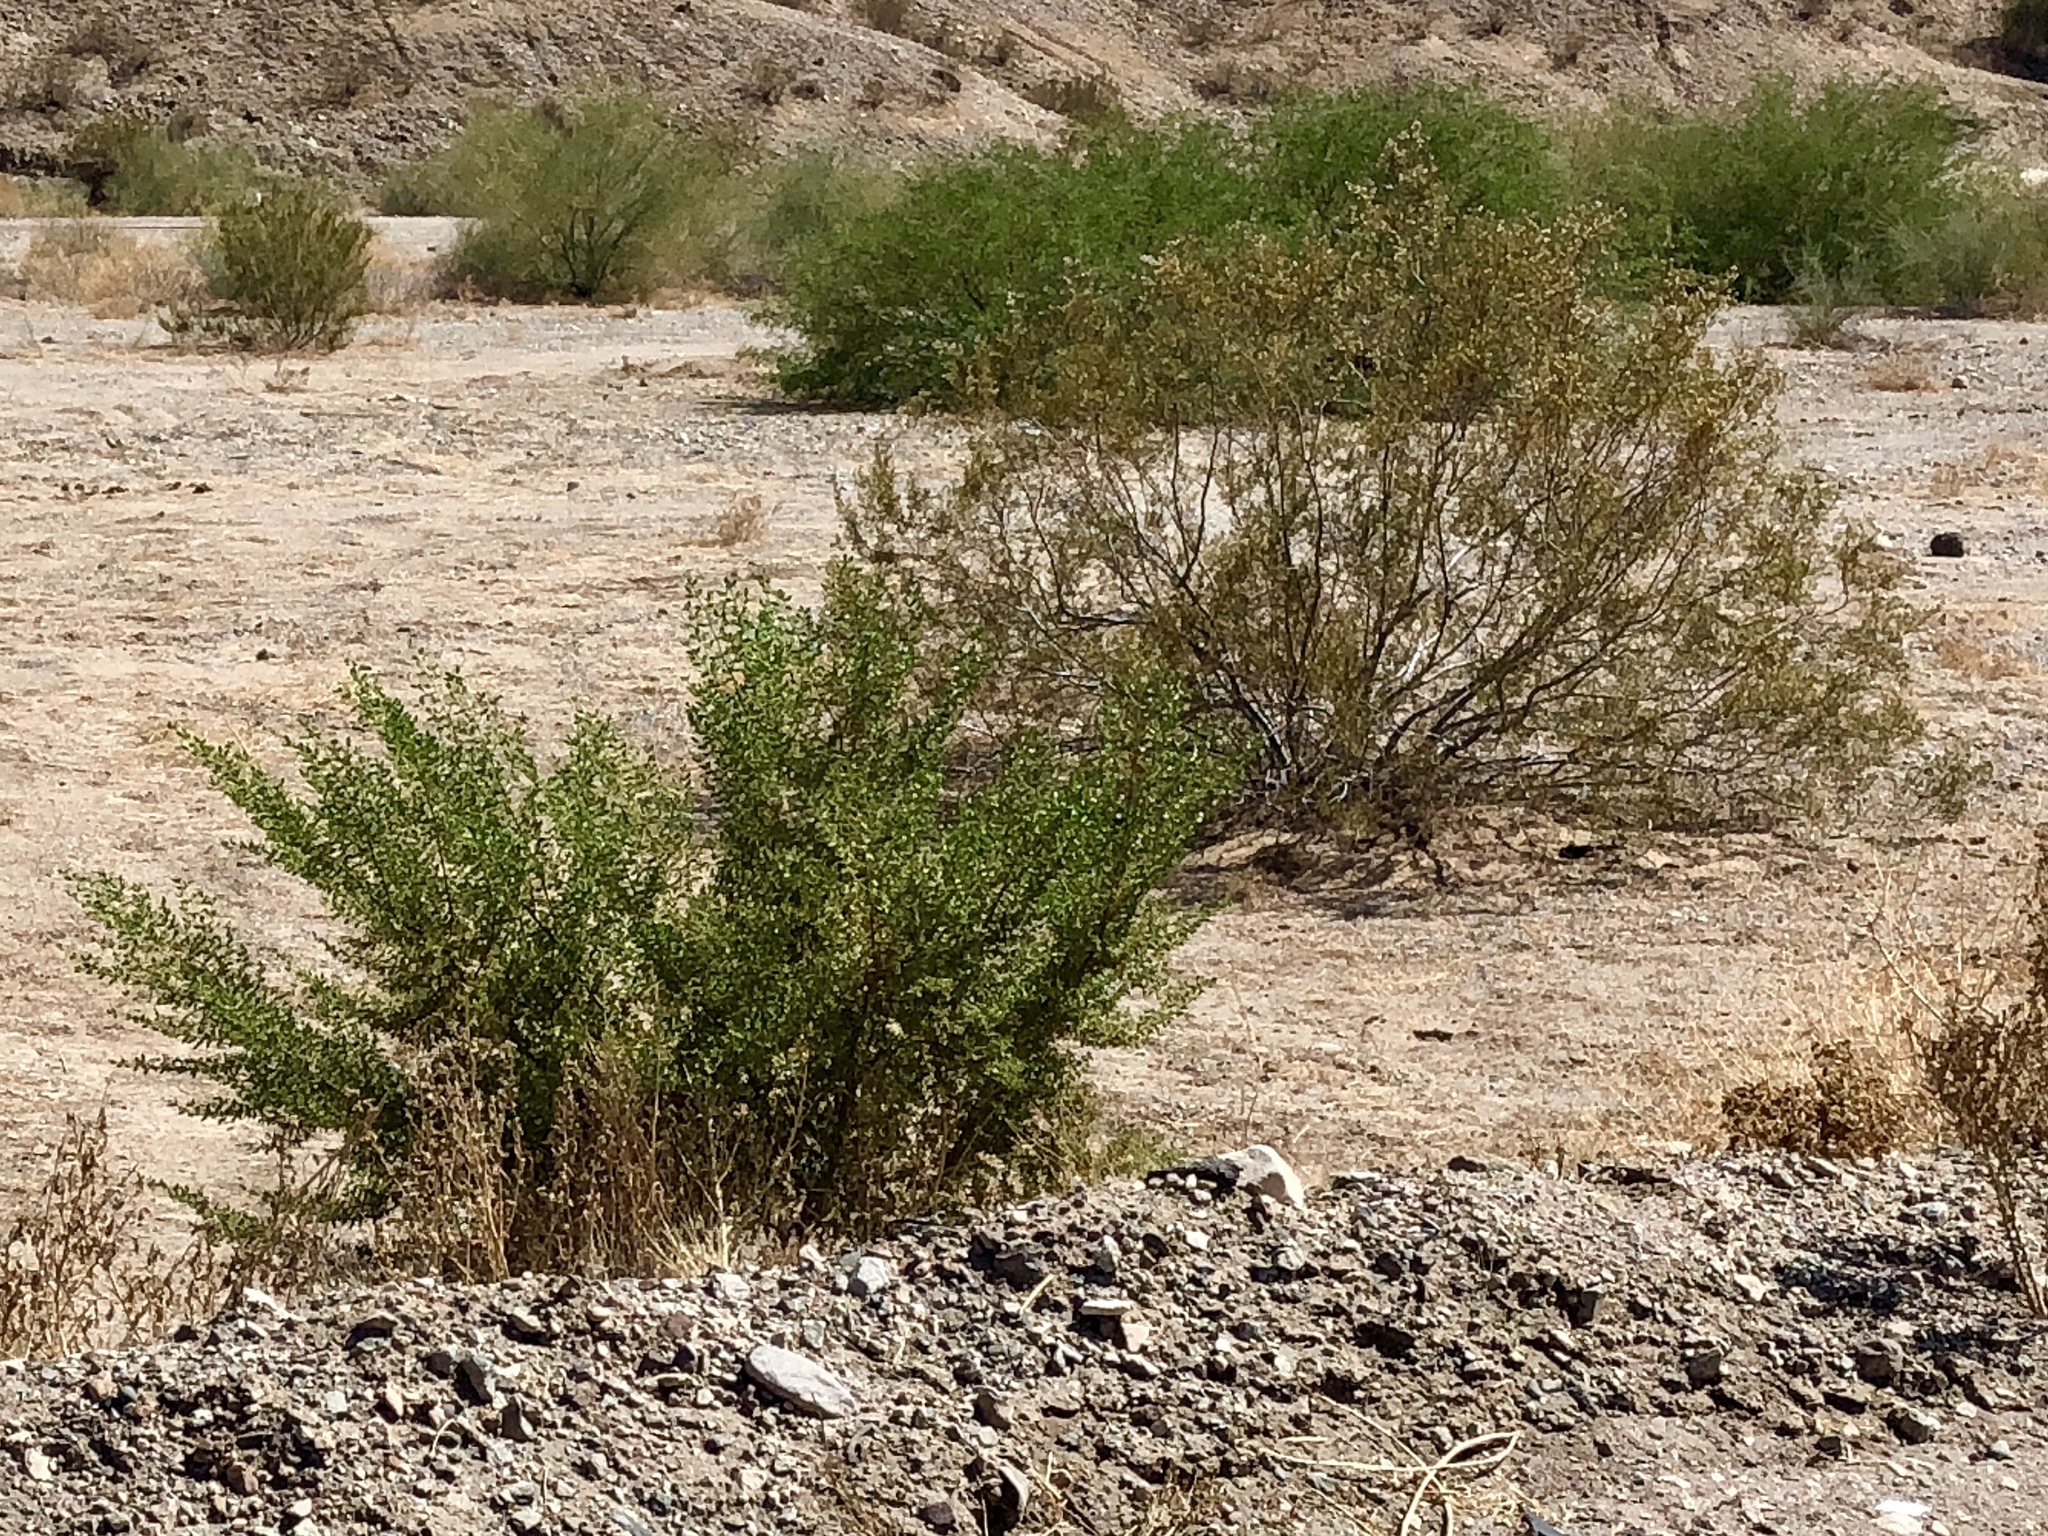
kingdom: Plantae
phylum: Tracheophyta
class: Magnoliopsida
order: Zygophyllales
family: Zygophyllaceae
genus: Larrea
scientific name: Larrea tridentata
